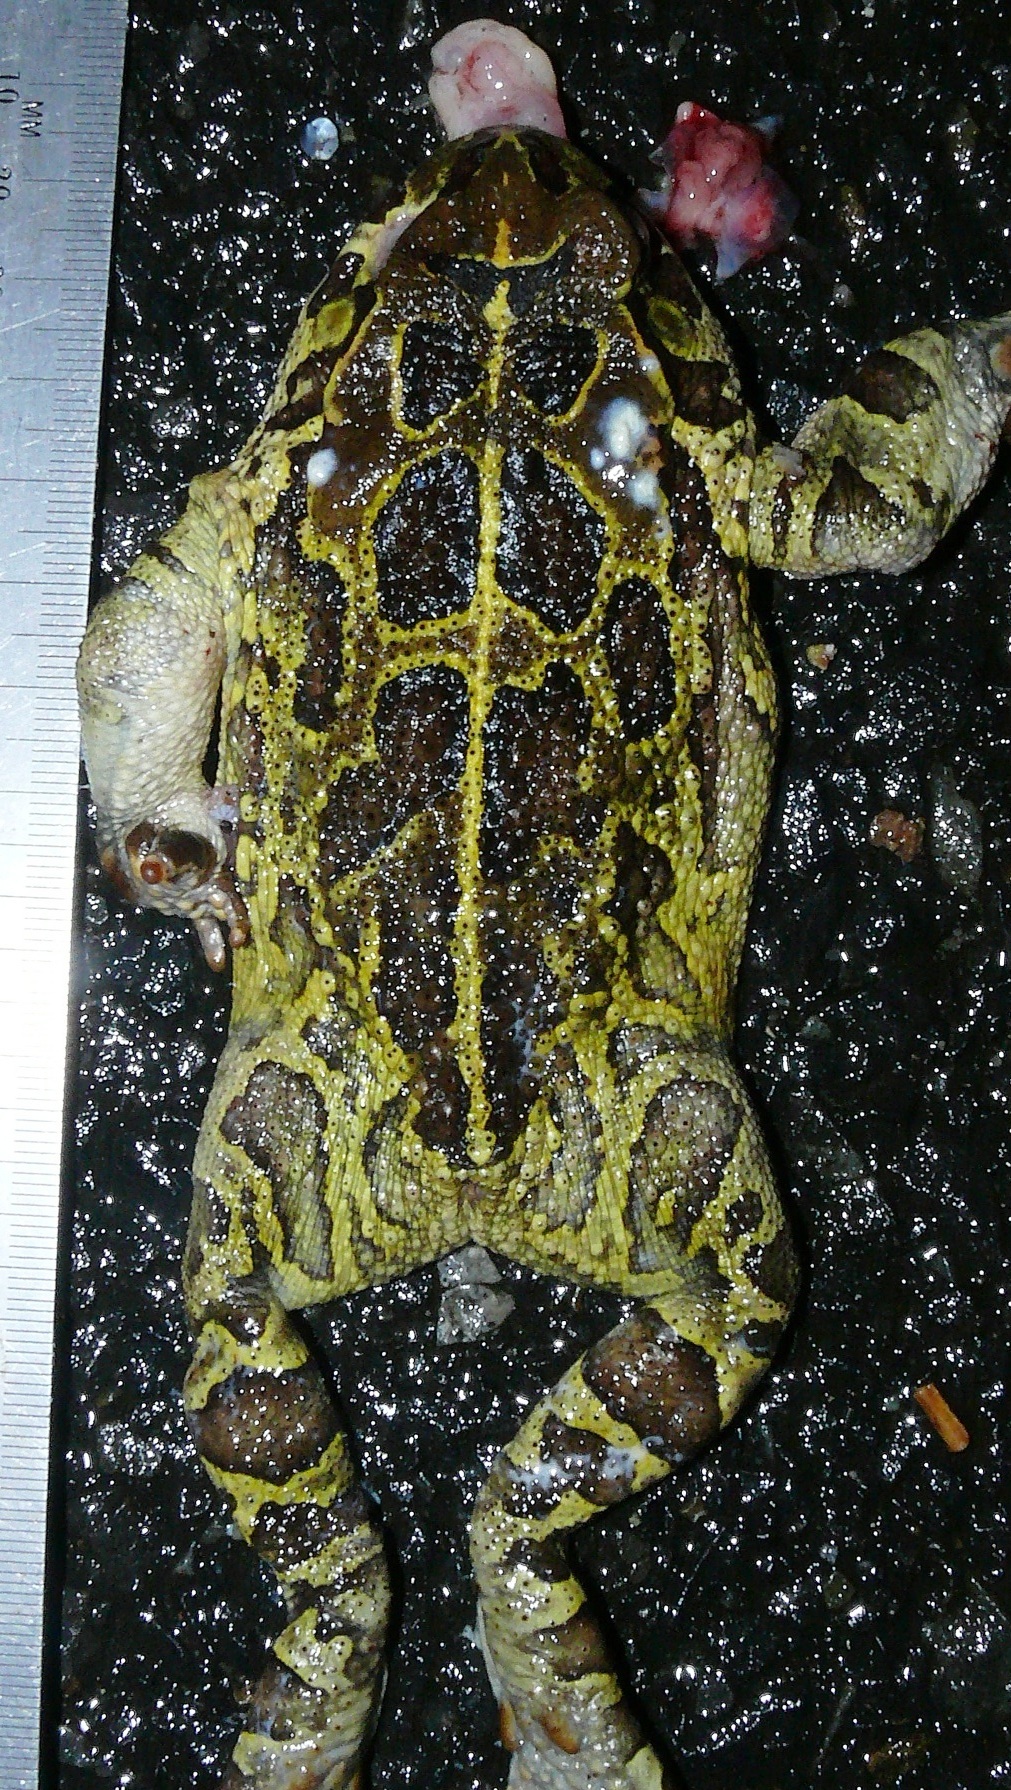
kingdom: Animalia
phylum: Chordata
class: Amphibia
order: Anura
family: Bufonidae
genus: Sclerophrys
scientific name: Sclerophrys pantherina
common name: Panther toad
